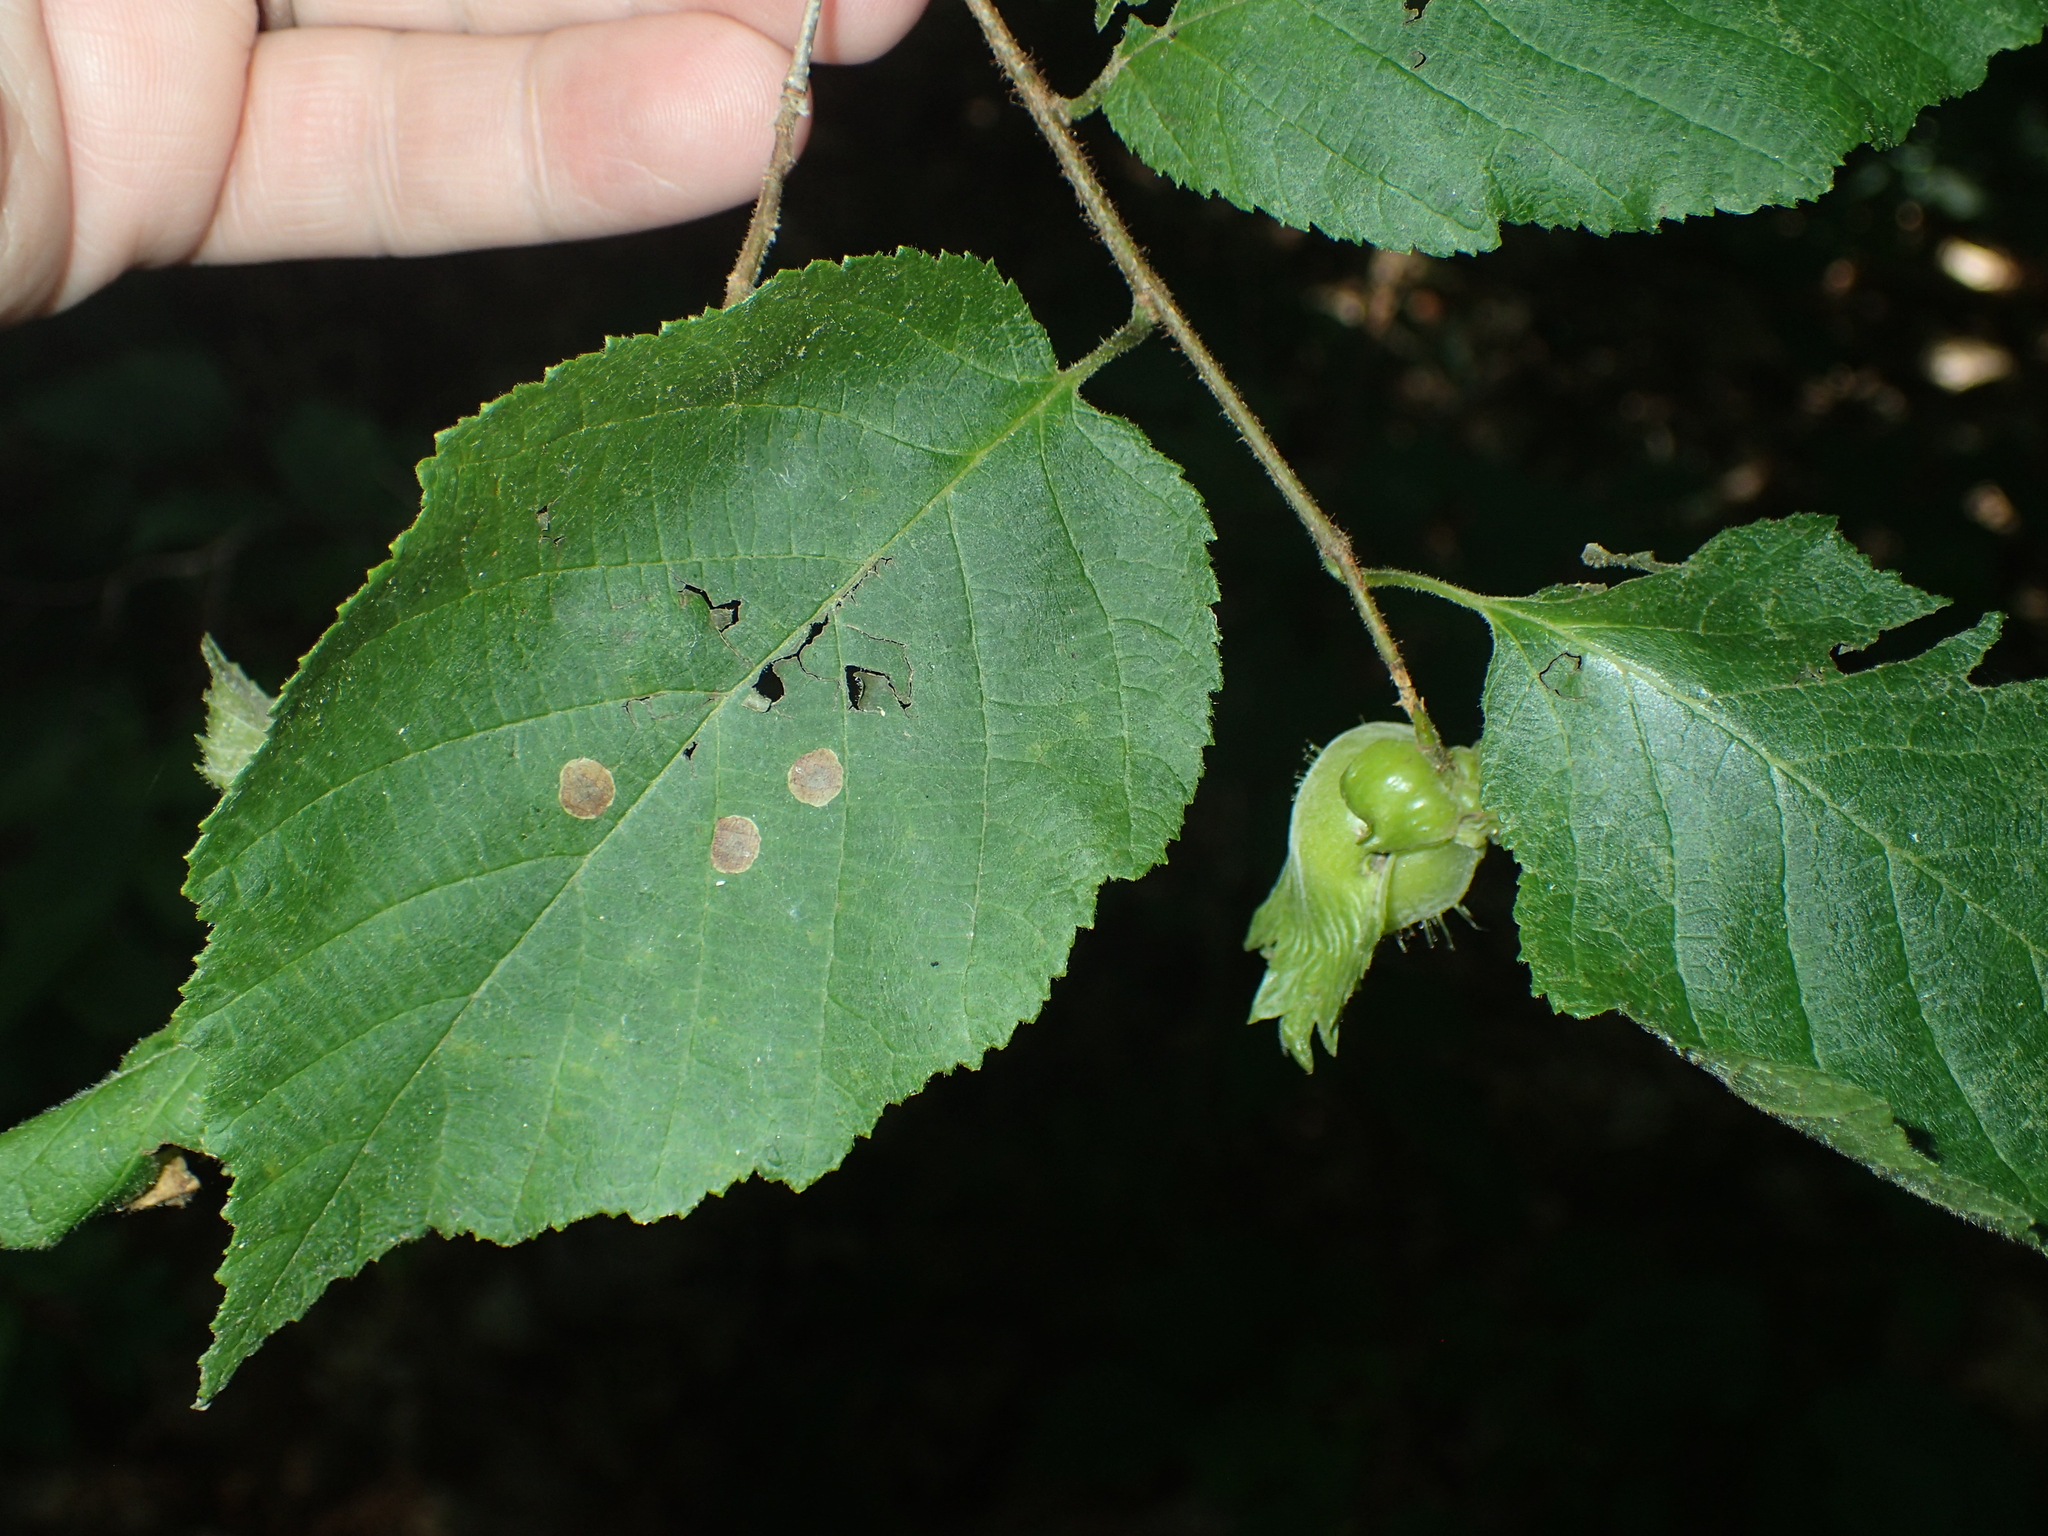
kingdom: Plantae
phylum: Tracheophyta
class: Magnoliopsida
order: Fagales
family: Betulaceae
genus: Corylus
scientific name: Corylus americana
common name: American hazel
